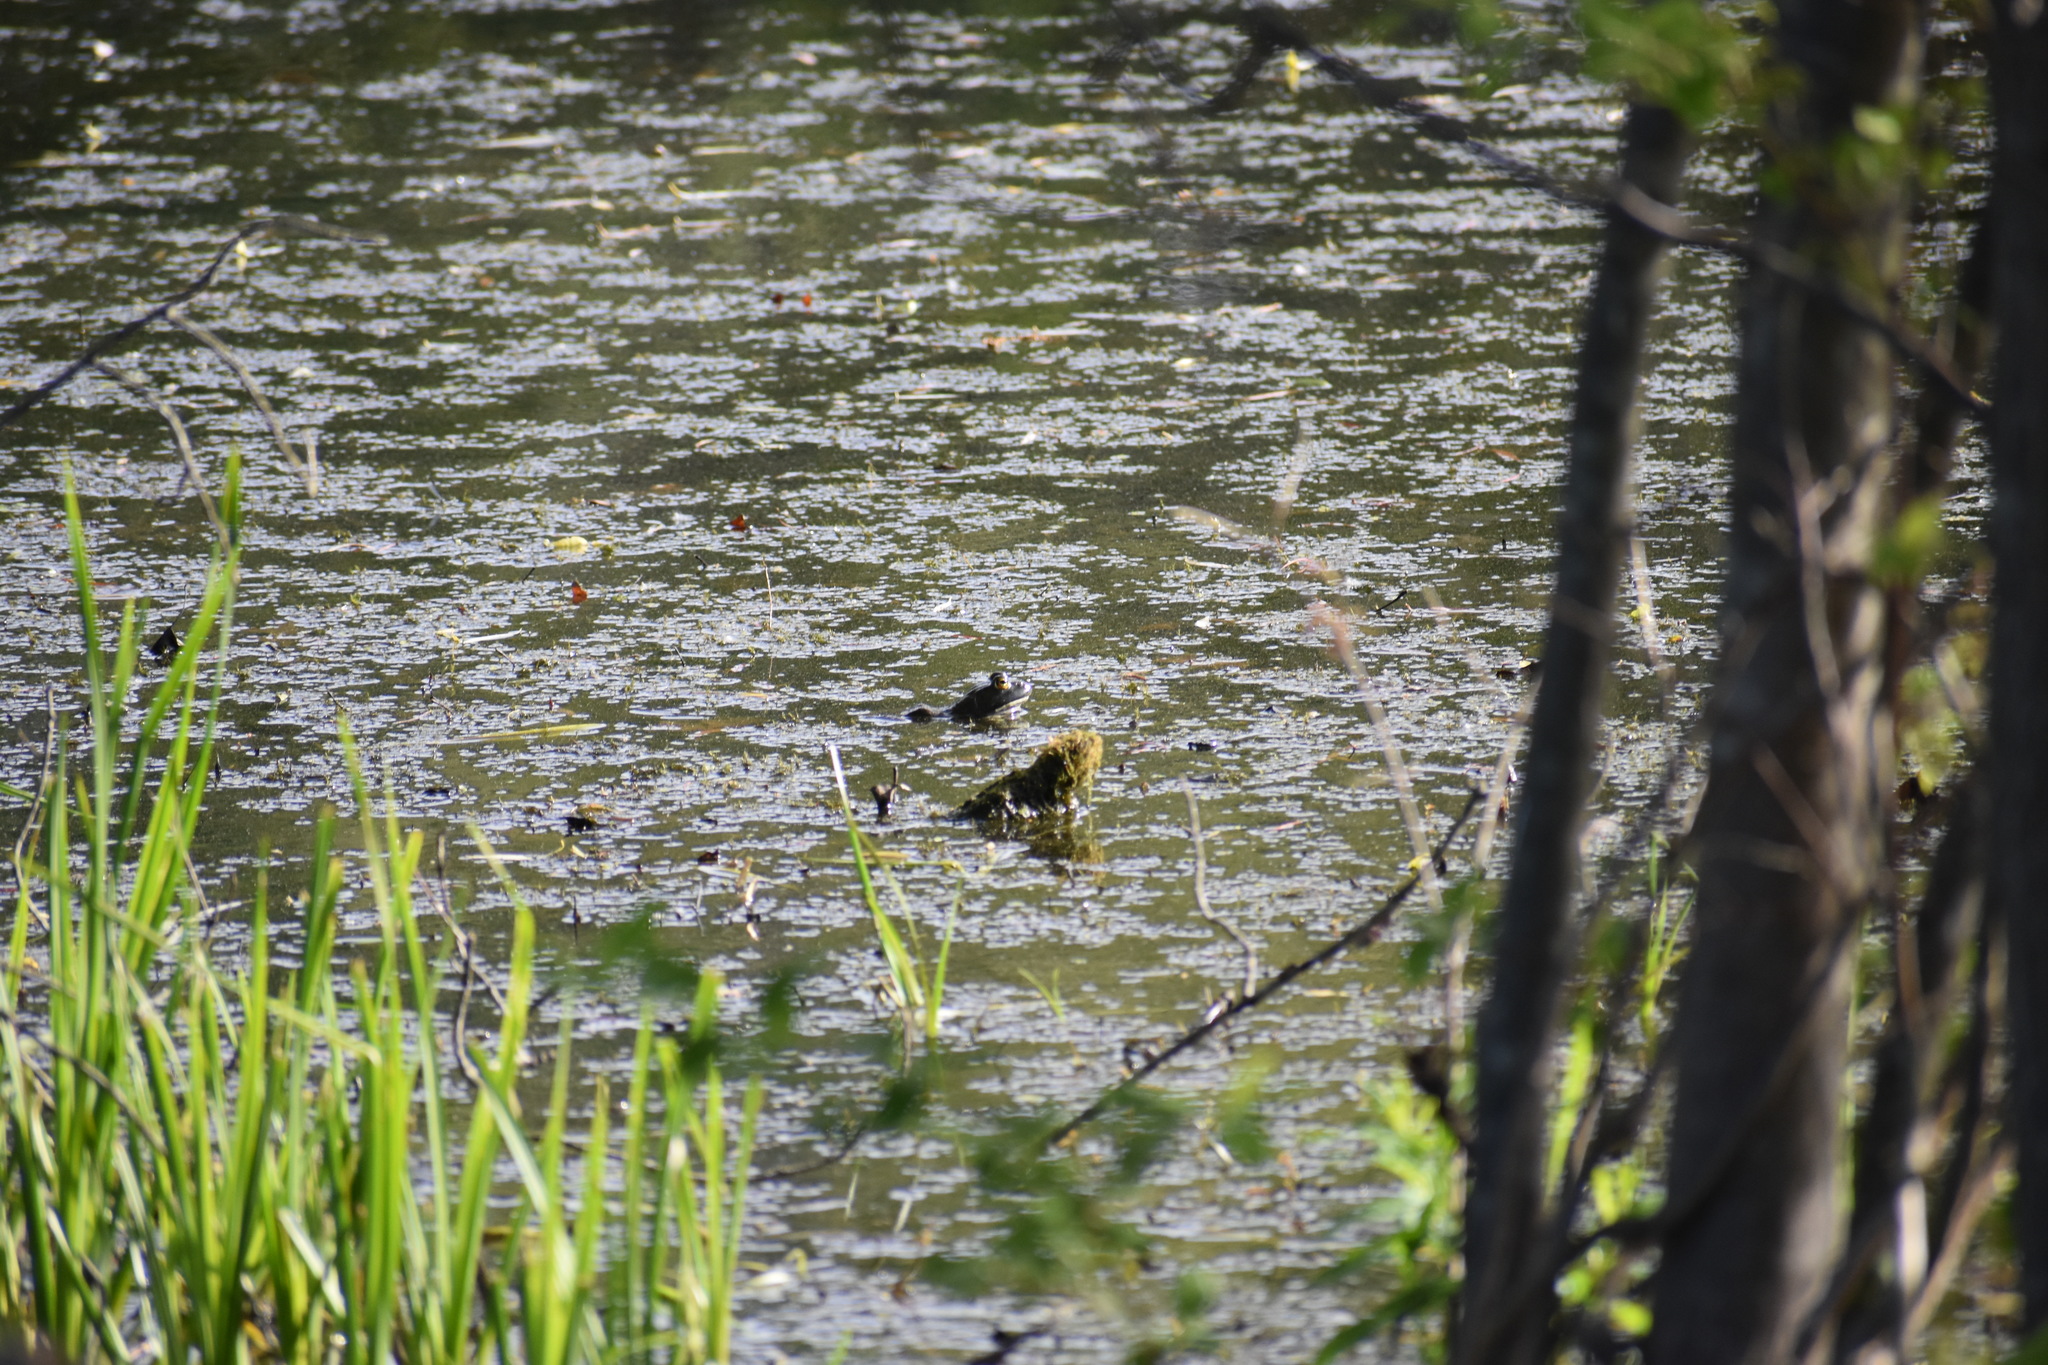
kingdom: Animalia
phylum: Chordata
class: Amphibia
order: Anura
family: Ranidae
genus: Lithobates
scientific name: Lithobates catesbeianus
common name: American bullfrog
